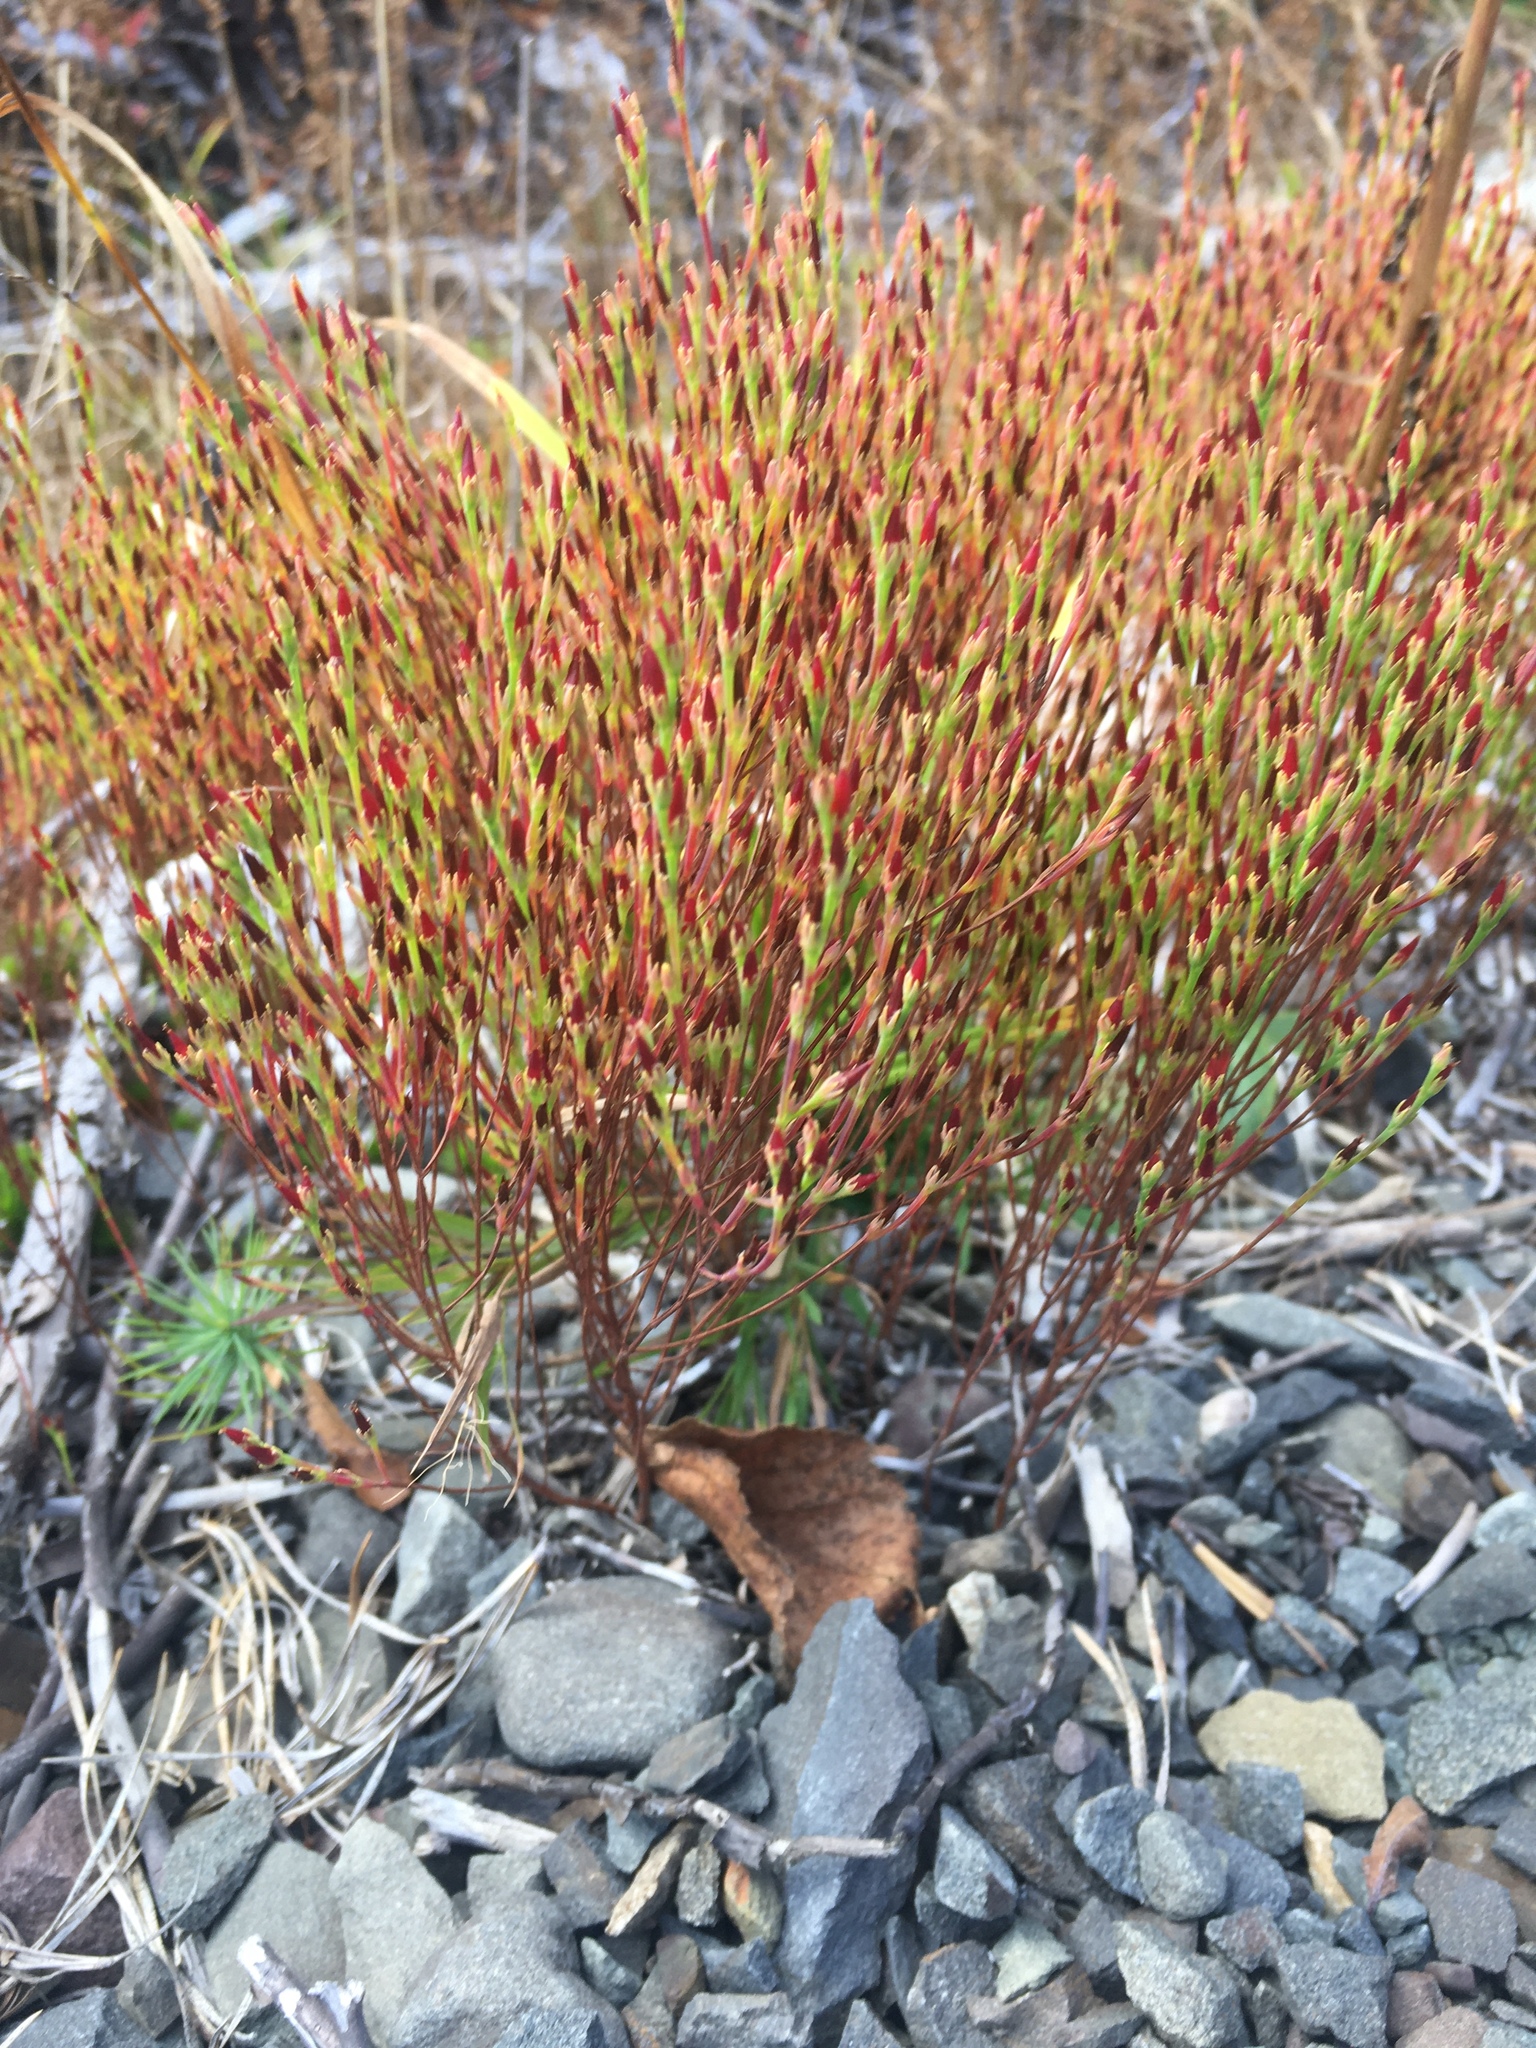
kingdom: Plantae
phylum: Tracheophyta
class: Magnoliopsida
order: Malpighiales
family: Hypericaceae
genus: Hypericum
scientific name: Hypericum gentianoides
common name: Gentian-leaved st. john's-wort
